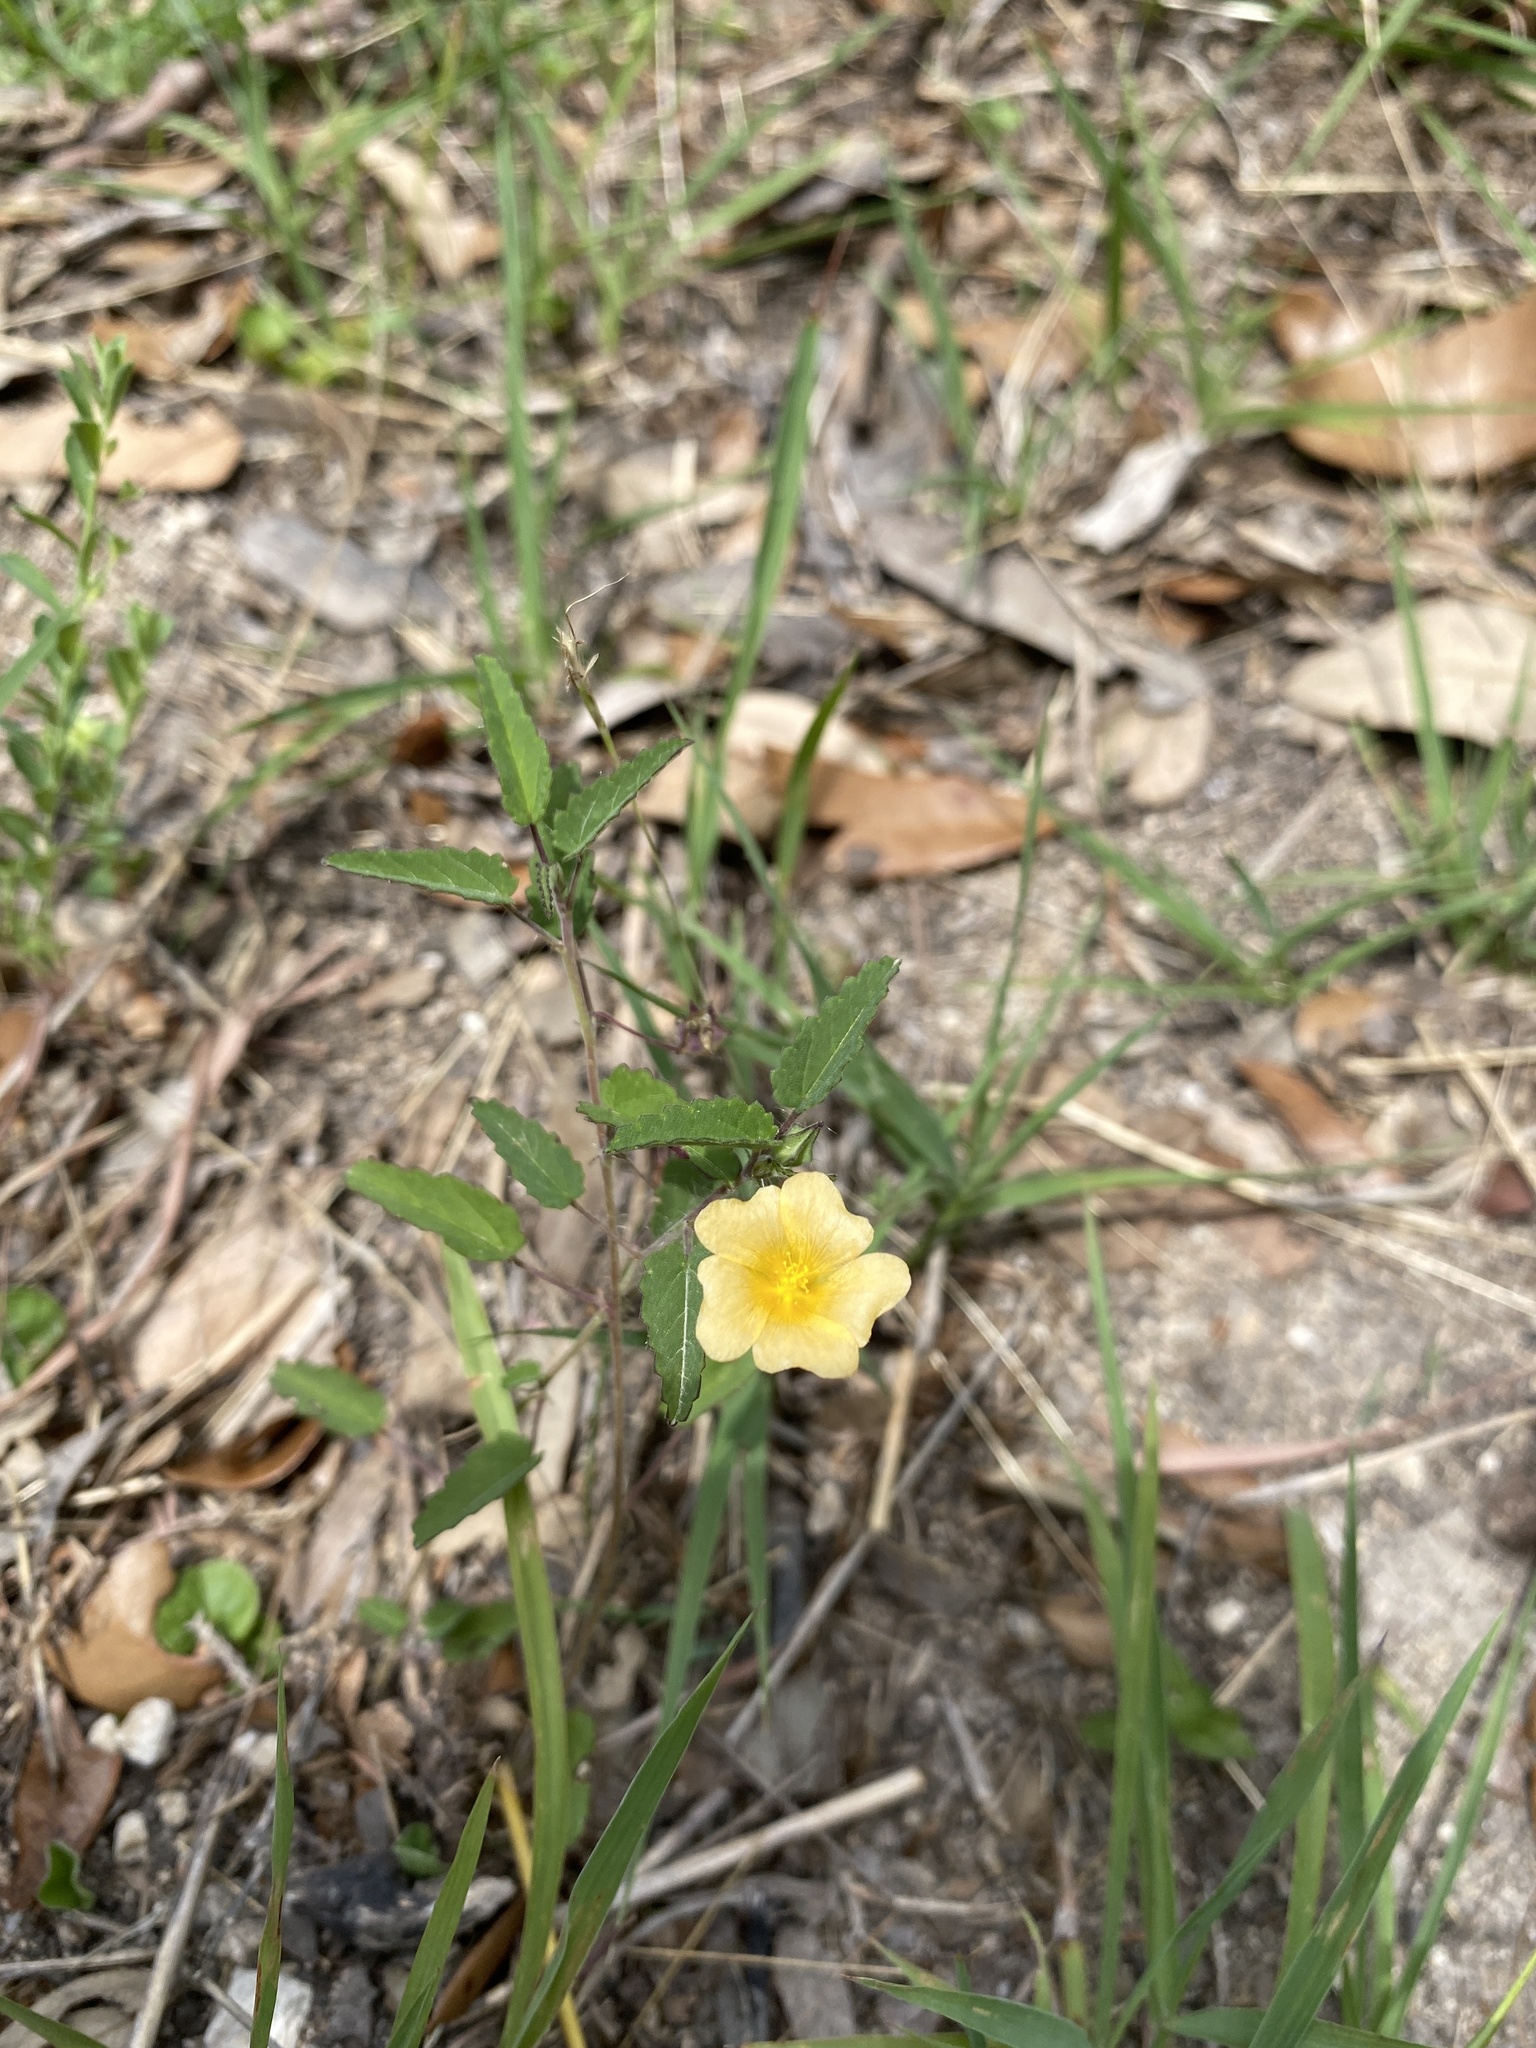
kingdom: Plantae
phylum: Tracheophyta
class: Magnoliopsida
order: Malvales
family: Malvaceae
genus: Sida
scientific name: Sida abutilifolia
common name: Spreading fanpetals
